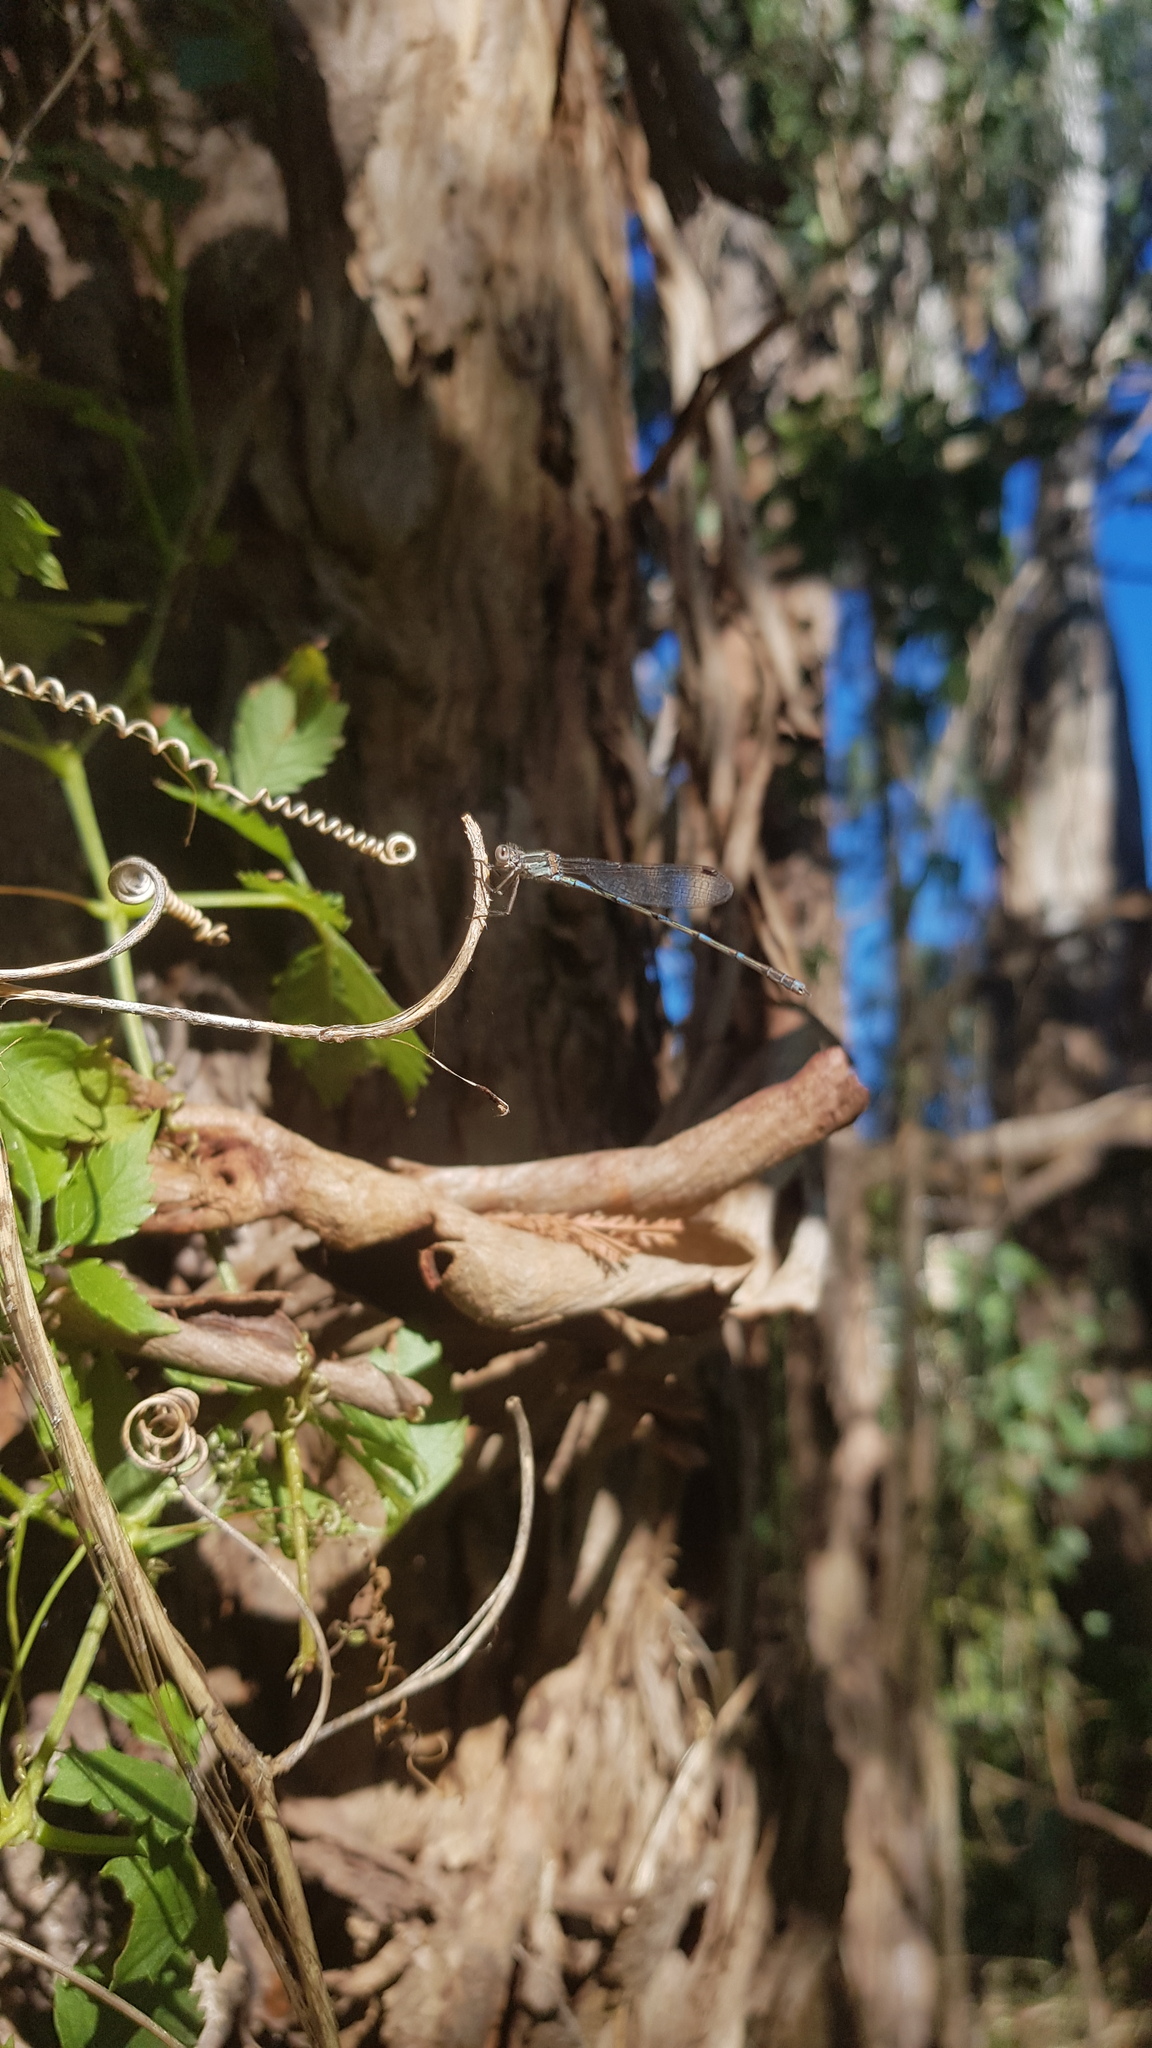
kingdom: Animalia
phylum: Arthropoda
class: Insecta
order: Odonata
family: Lestidae
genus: Austrolestes
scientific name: Austrolestes leda
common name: Wandering ringtail
